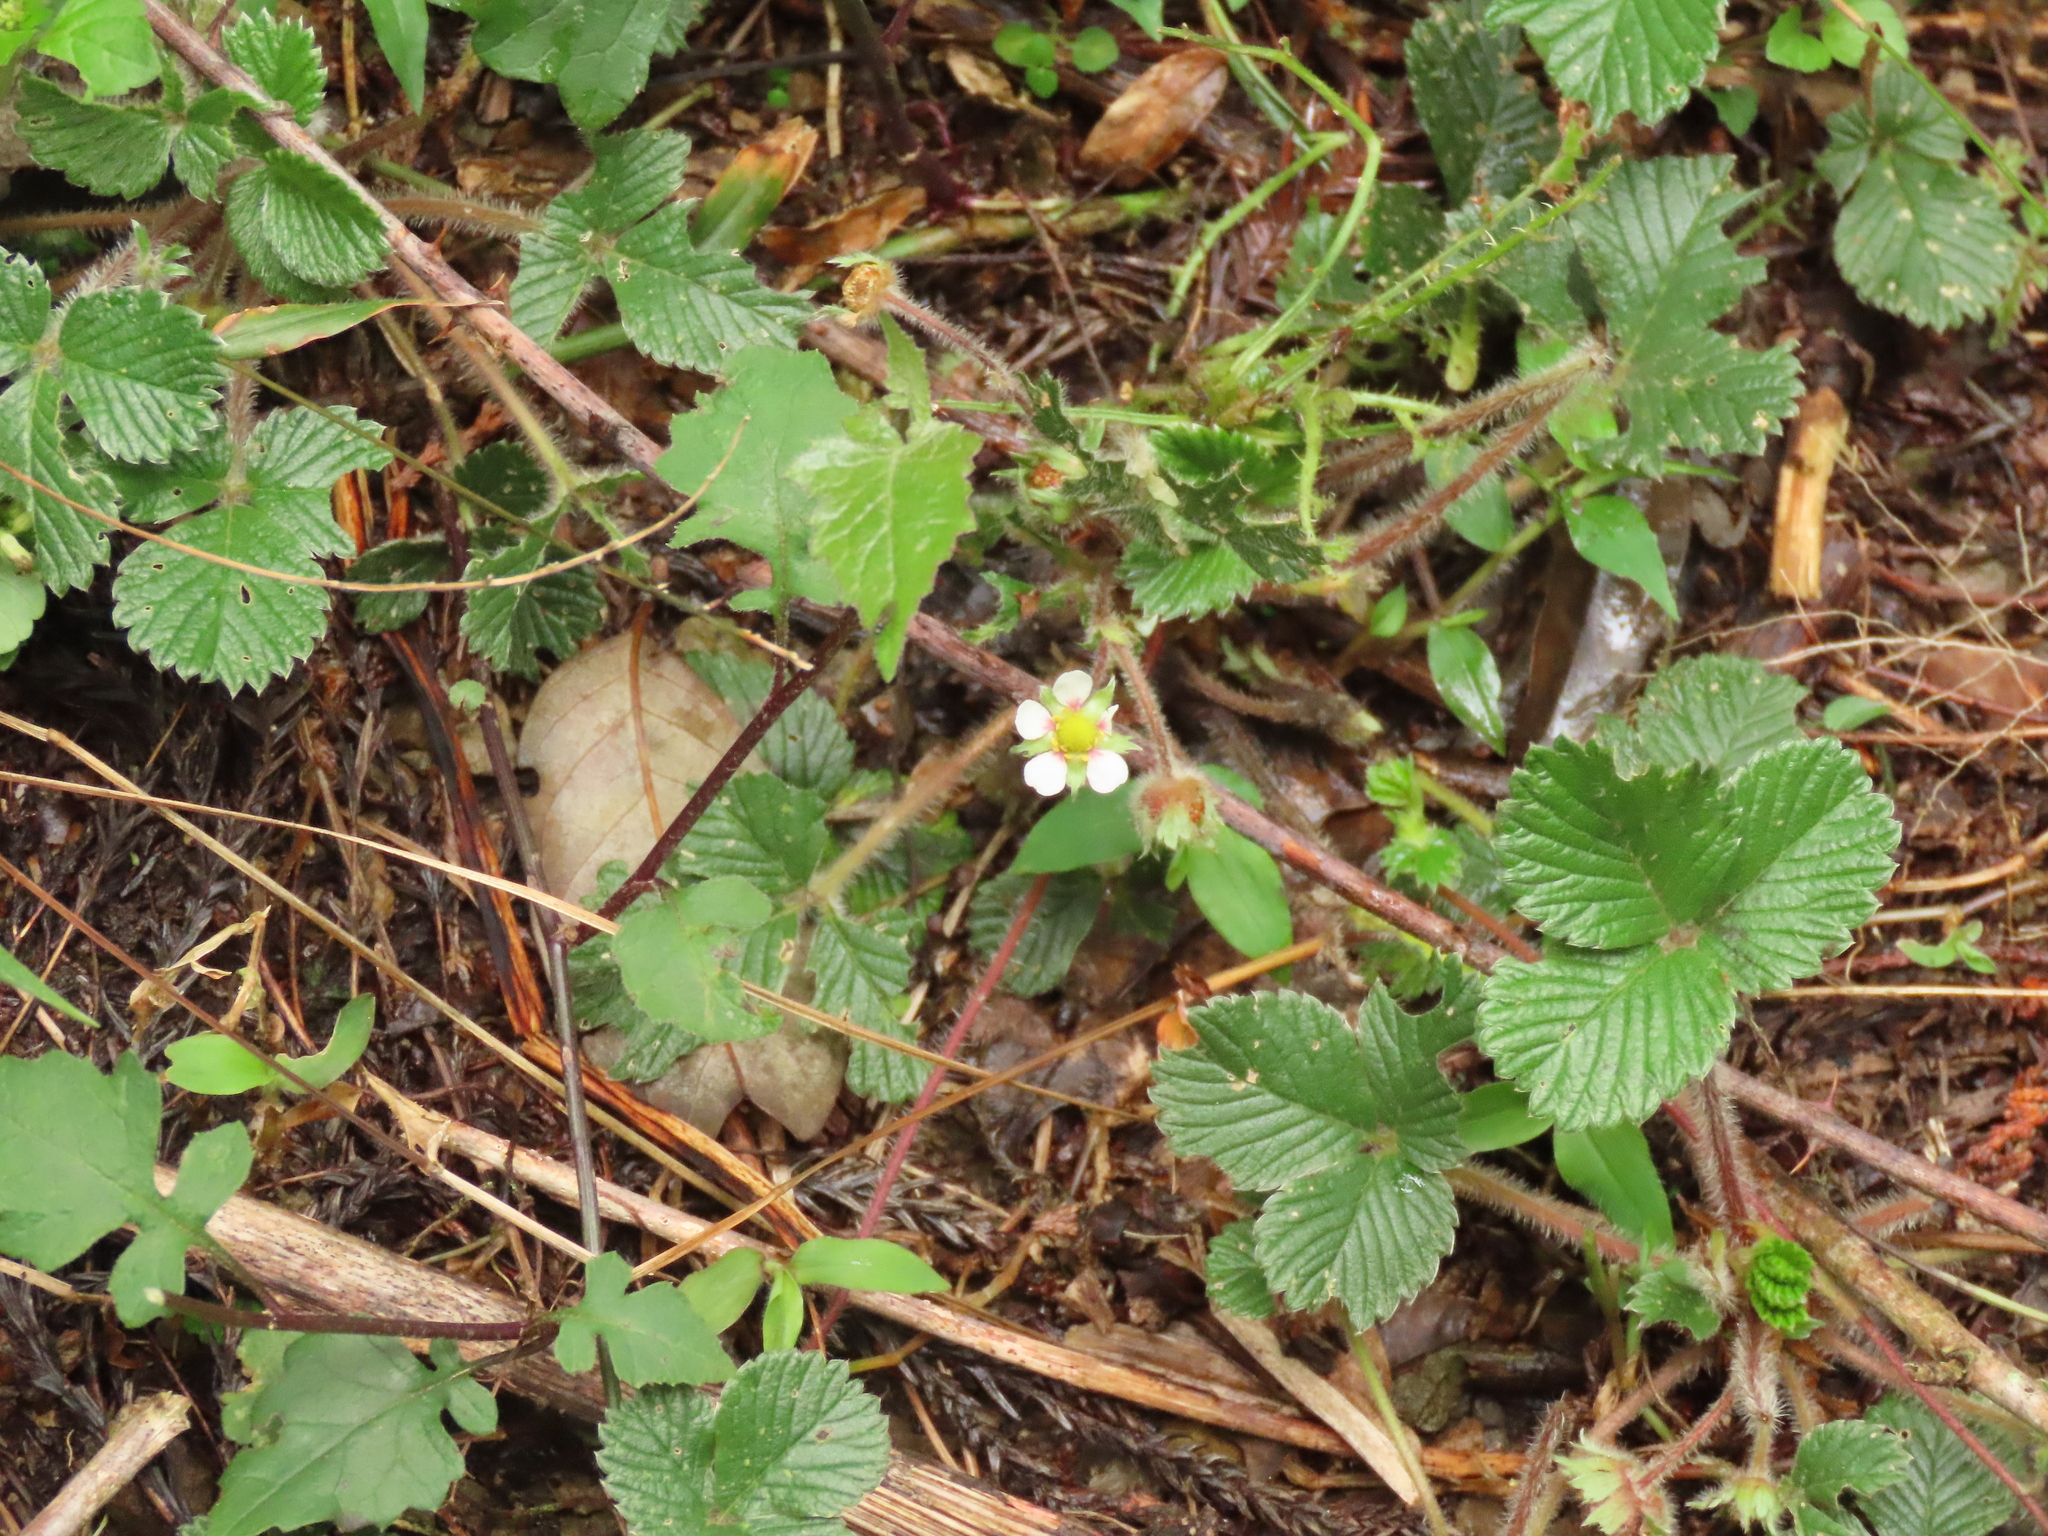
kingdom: Plantae
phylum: Tracheophyta
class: Magnoliopsida
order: Rosales
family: Rosaceae
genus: Fragaria
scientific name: Fragaria nilgerrensis
